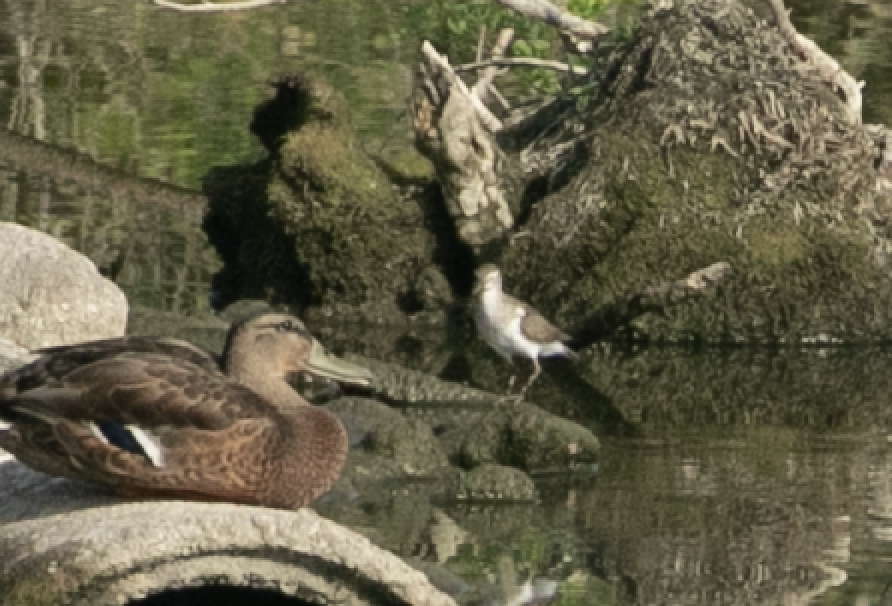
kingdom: Animalia
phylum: Chordata
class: Aves
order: Charadriiformes
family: Scolopacidae
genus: Actitis
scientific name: Actitis hypoleucos
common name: Common sandpiper
